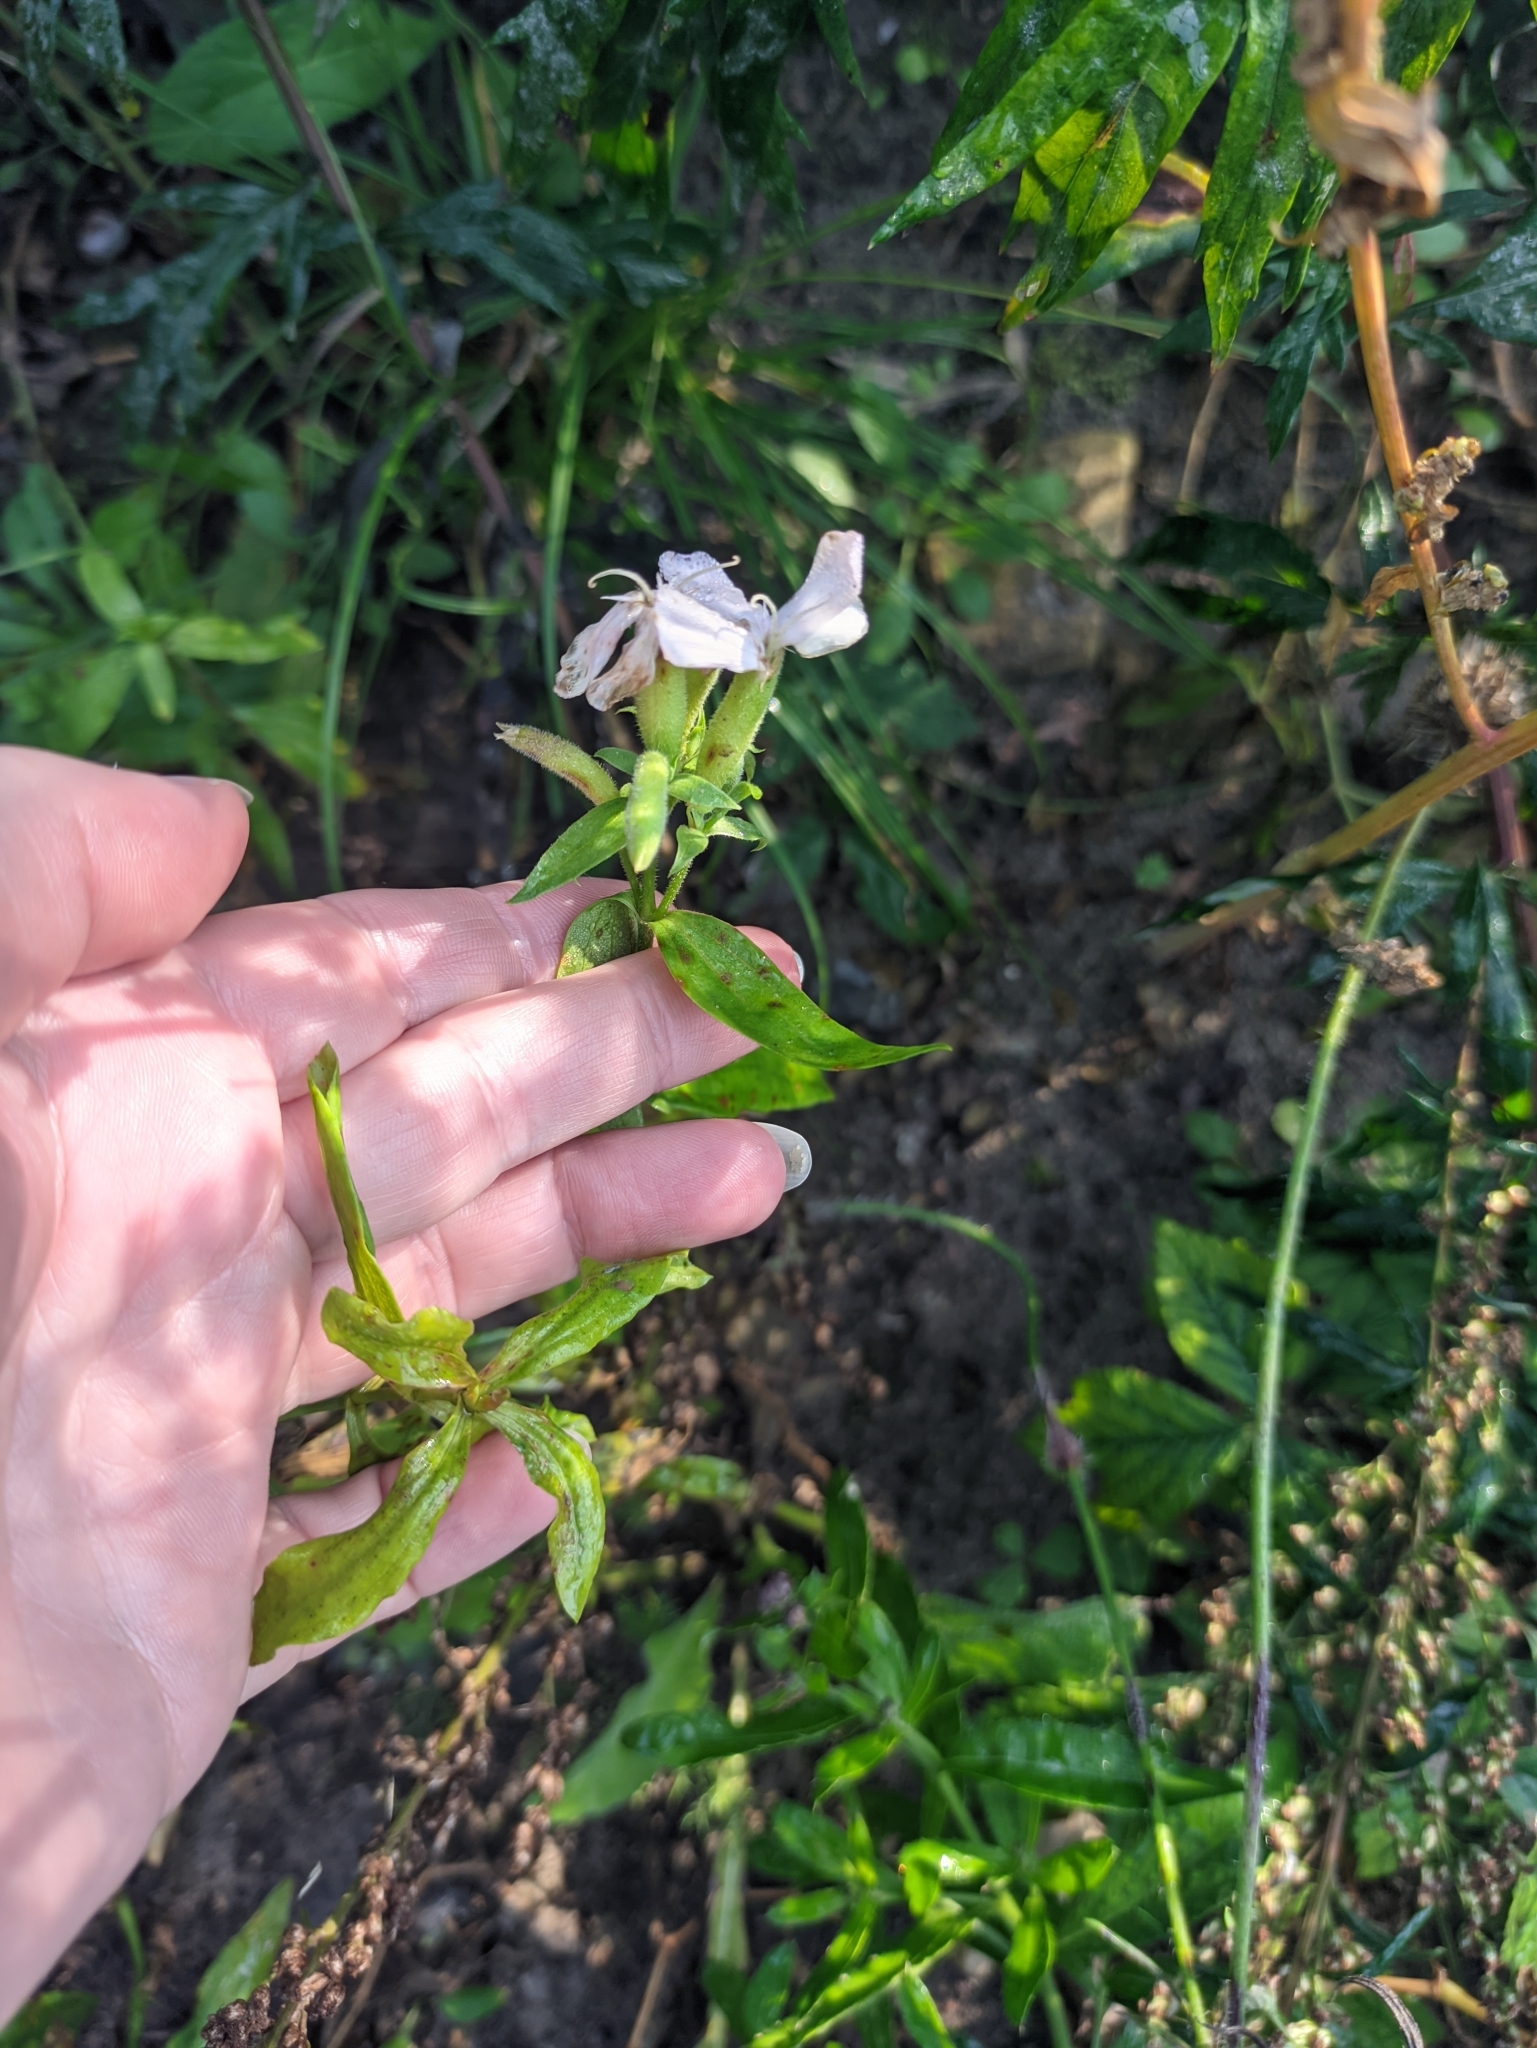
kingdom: Plantae
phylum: Tracheophyta
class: Magnoliopsida
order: Caryophyllales
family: Caryophyllaceae
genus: Saponaria
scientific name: Saponaria officinalis
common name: Soapwort
